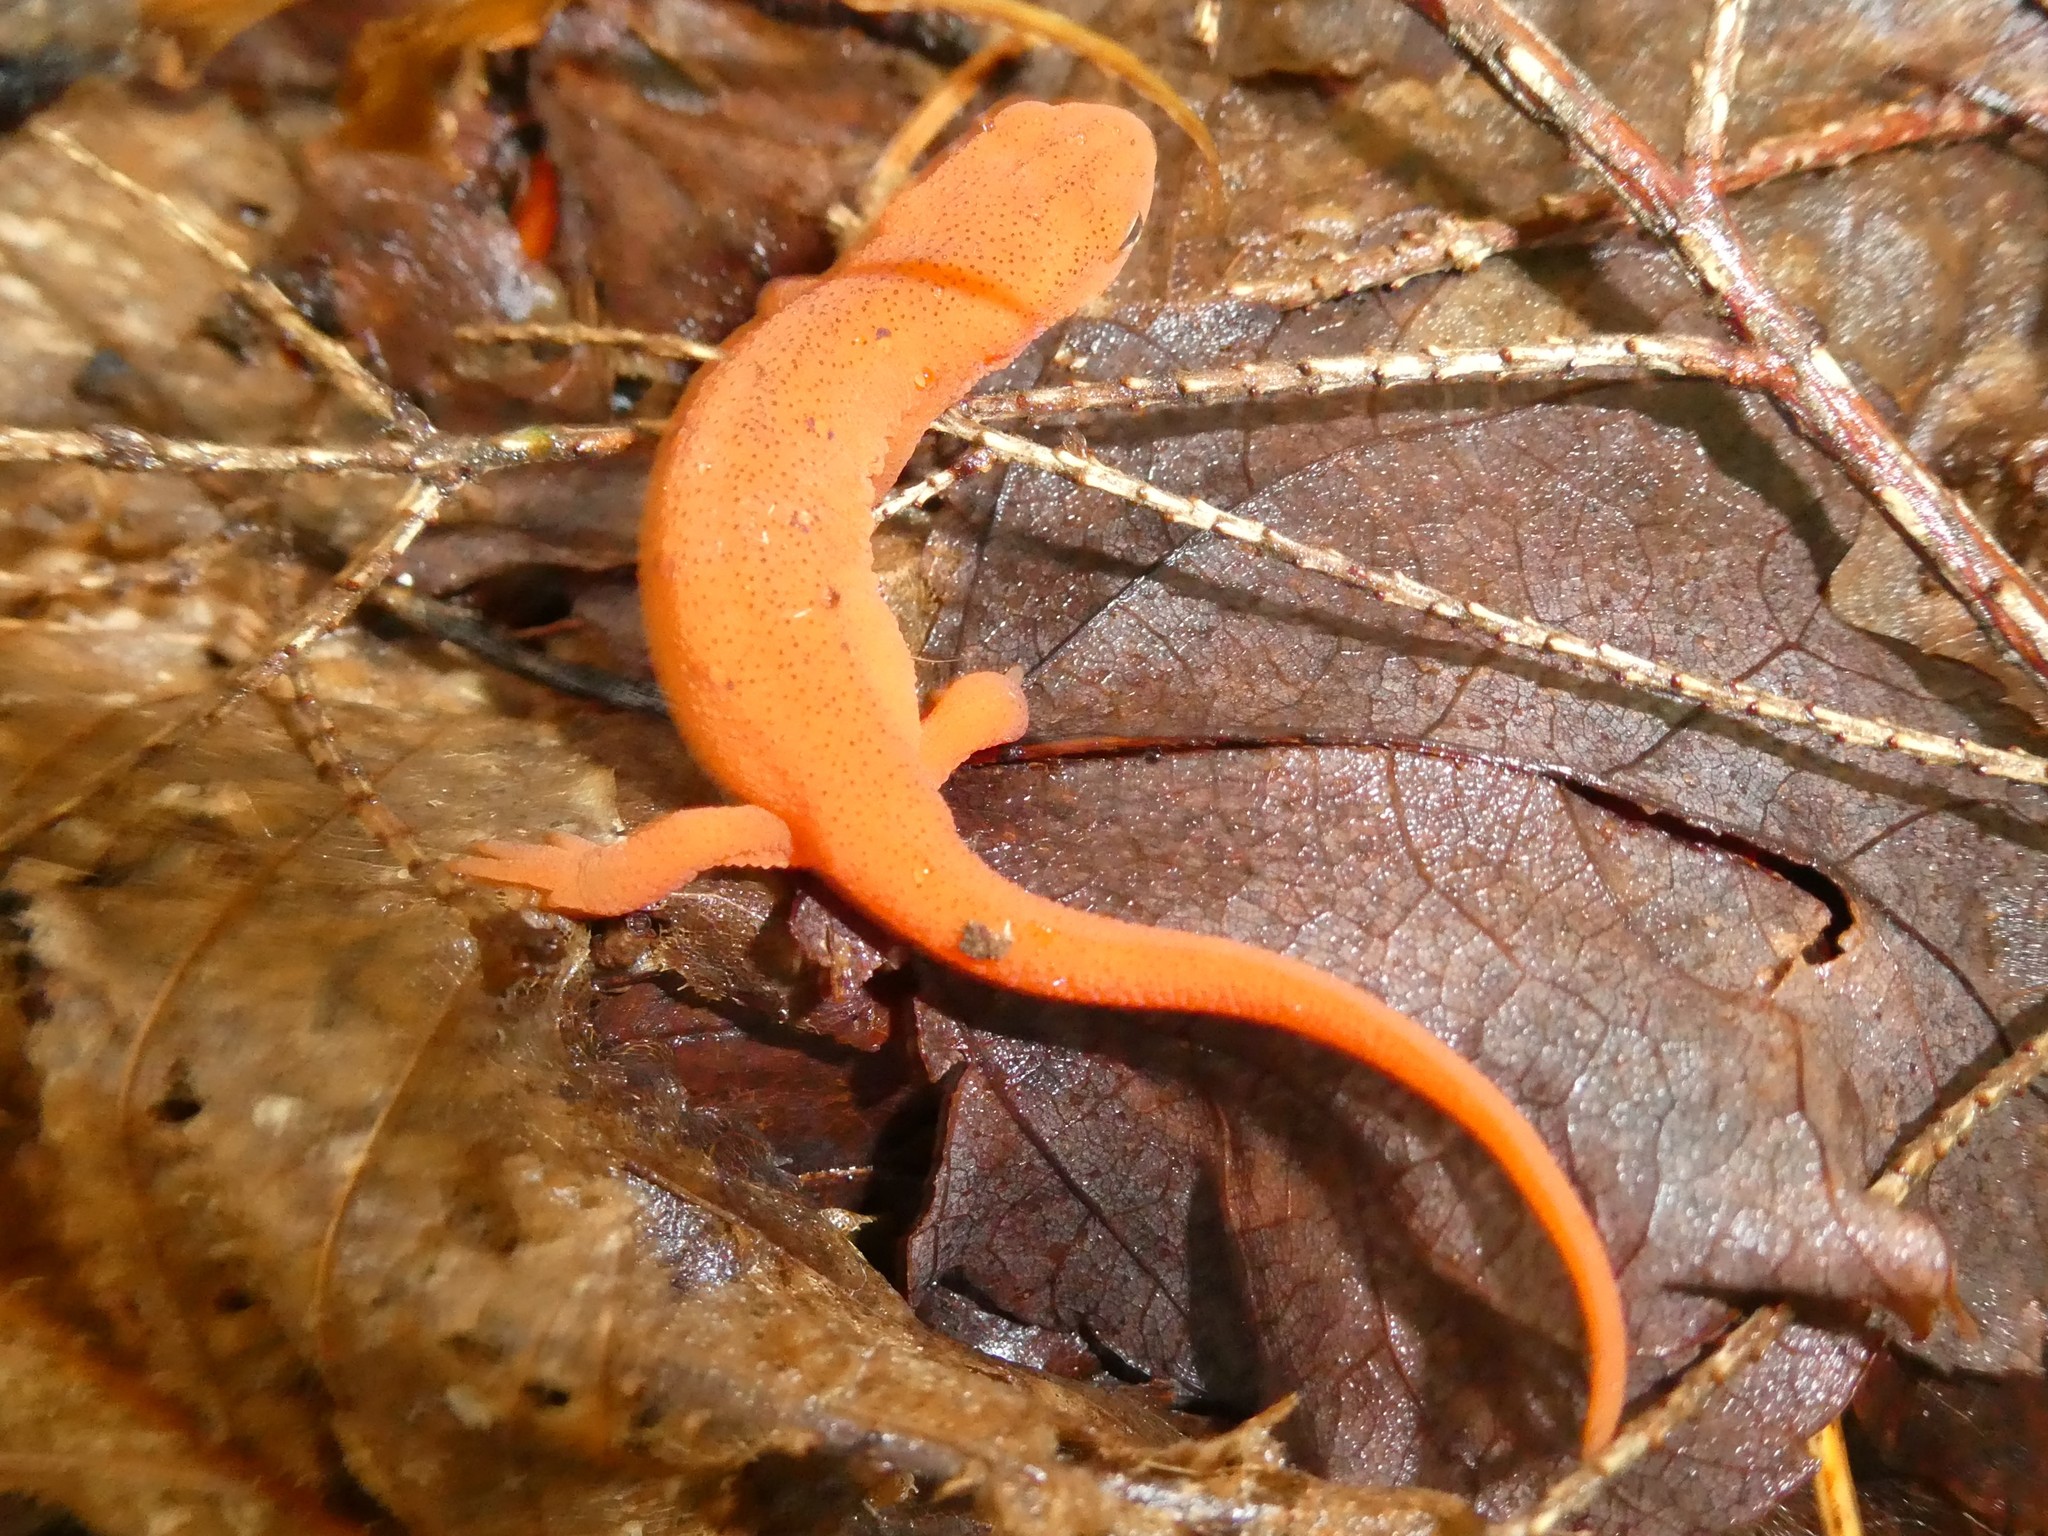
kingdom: Animalia
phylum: Chordata
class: Amphibia
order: Caudata
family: Salamandridae
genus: Notophthalmus
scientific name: Notophthalmus viridescens
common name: Eastern newt
